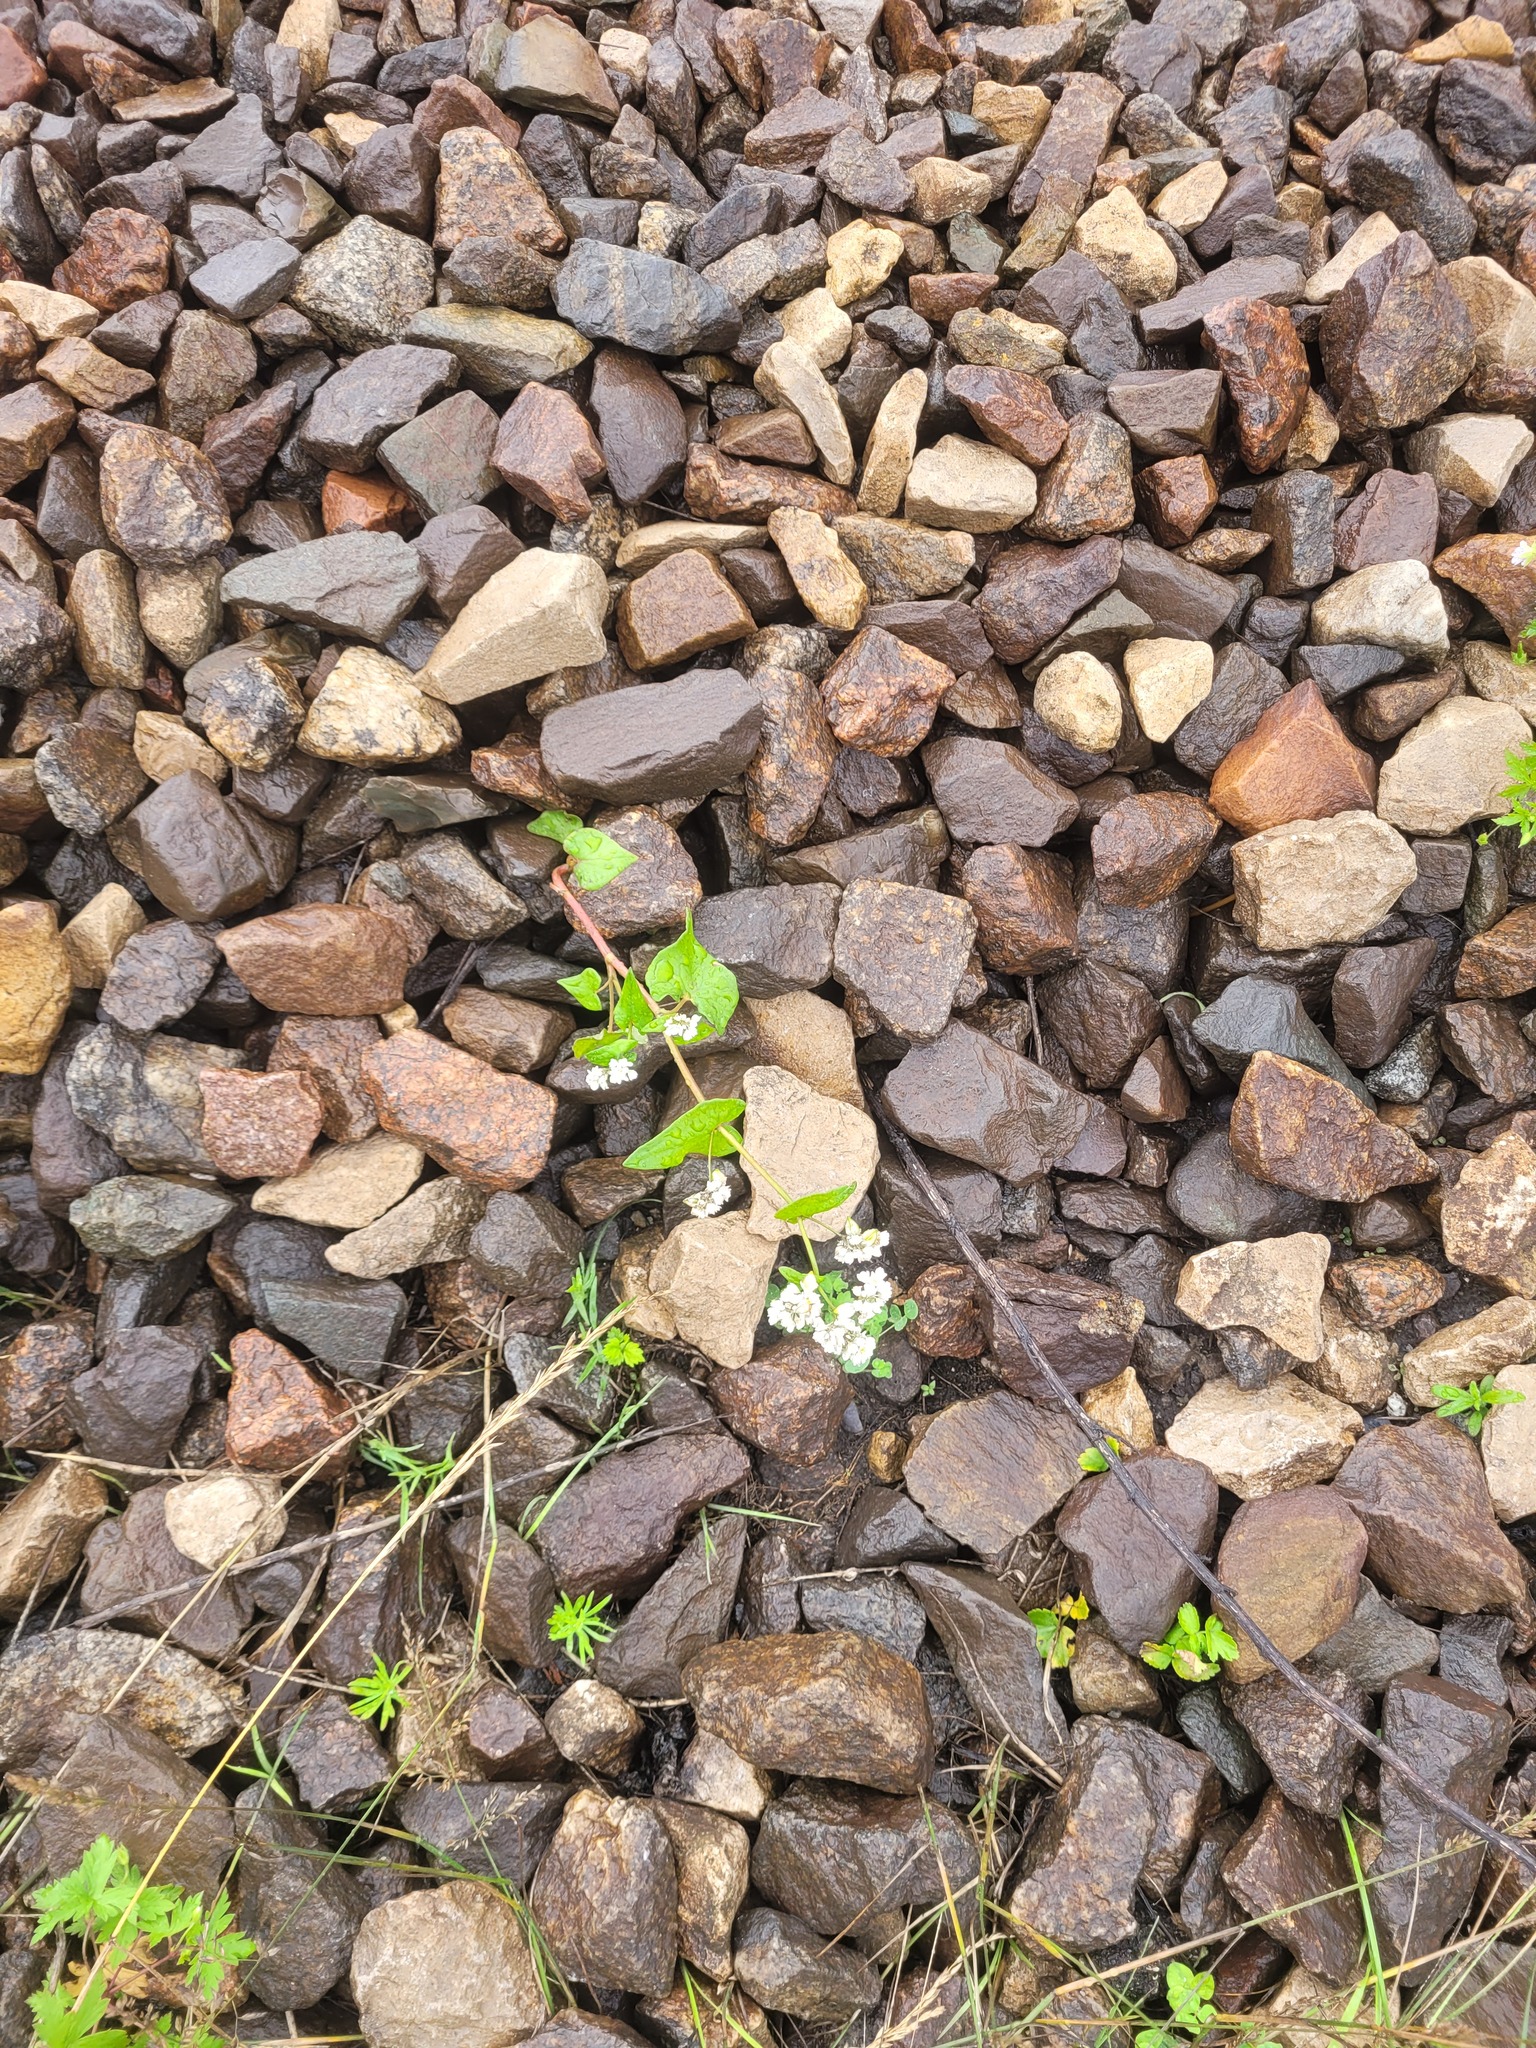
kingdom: Plantae
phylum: Tracheophyta
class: Magnoliopsida
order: Caryophyllales
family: Polygonaceae
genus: Fagopyrum
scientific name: Fagopyrum esculentum
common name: Buckwheat
